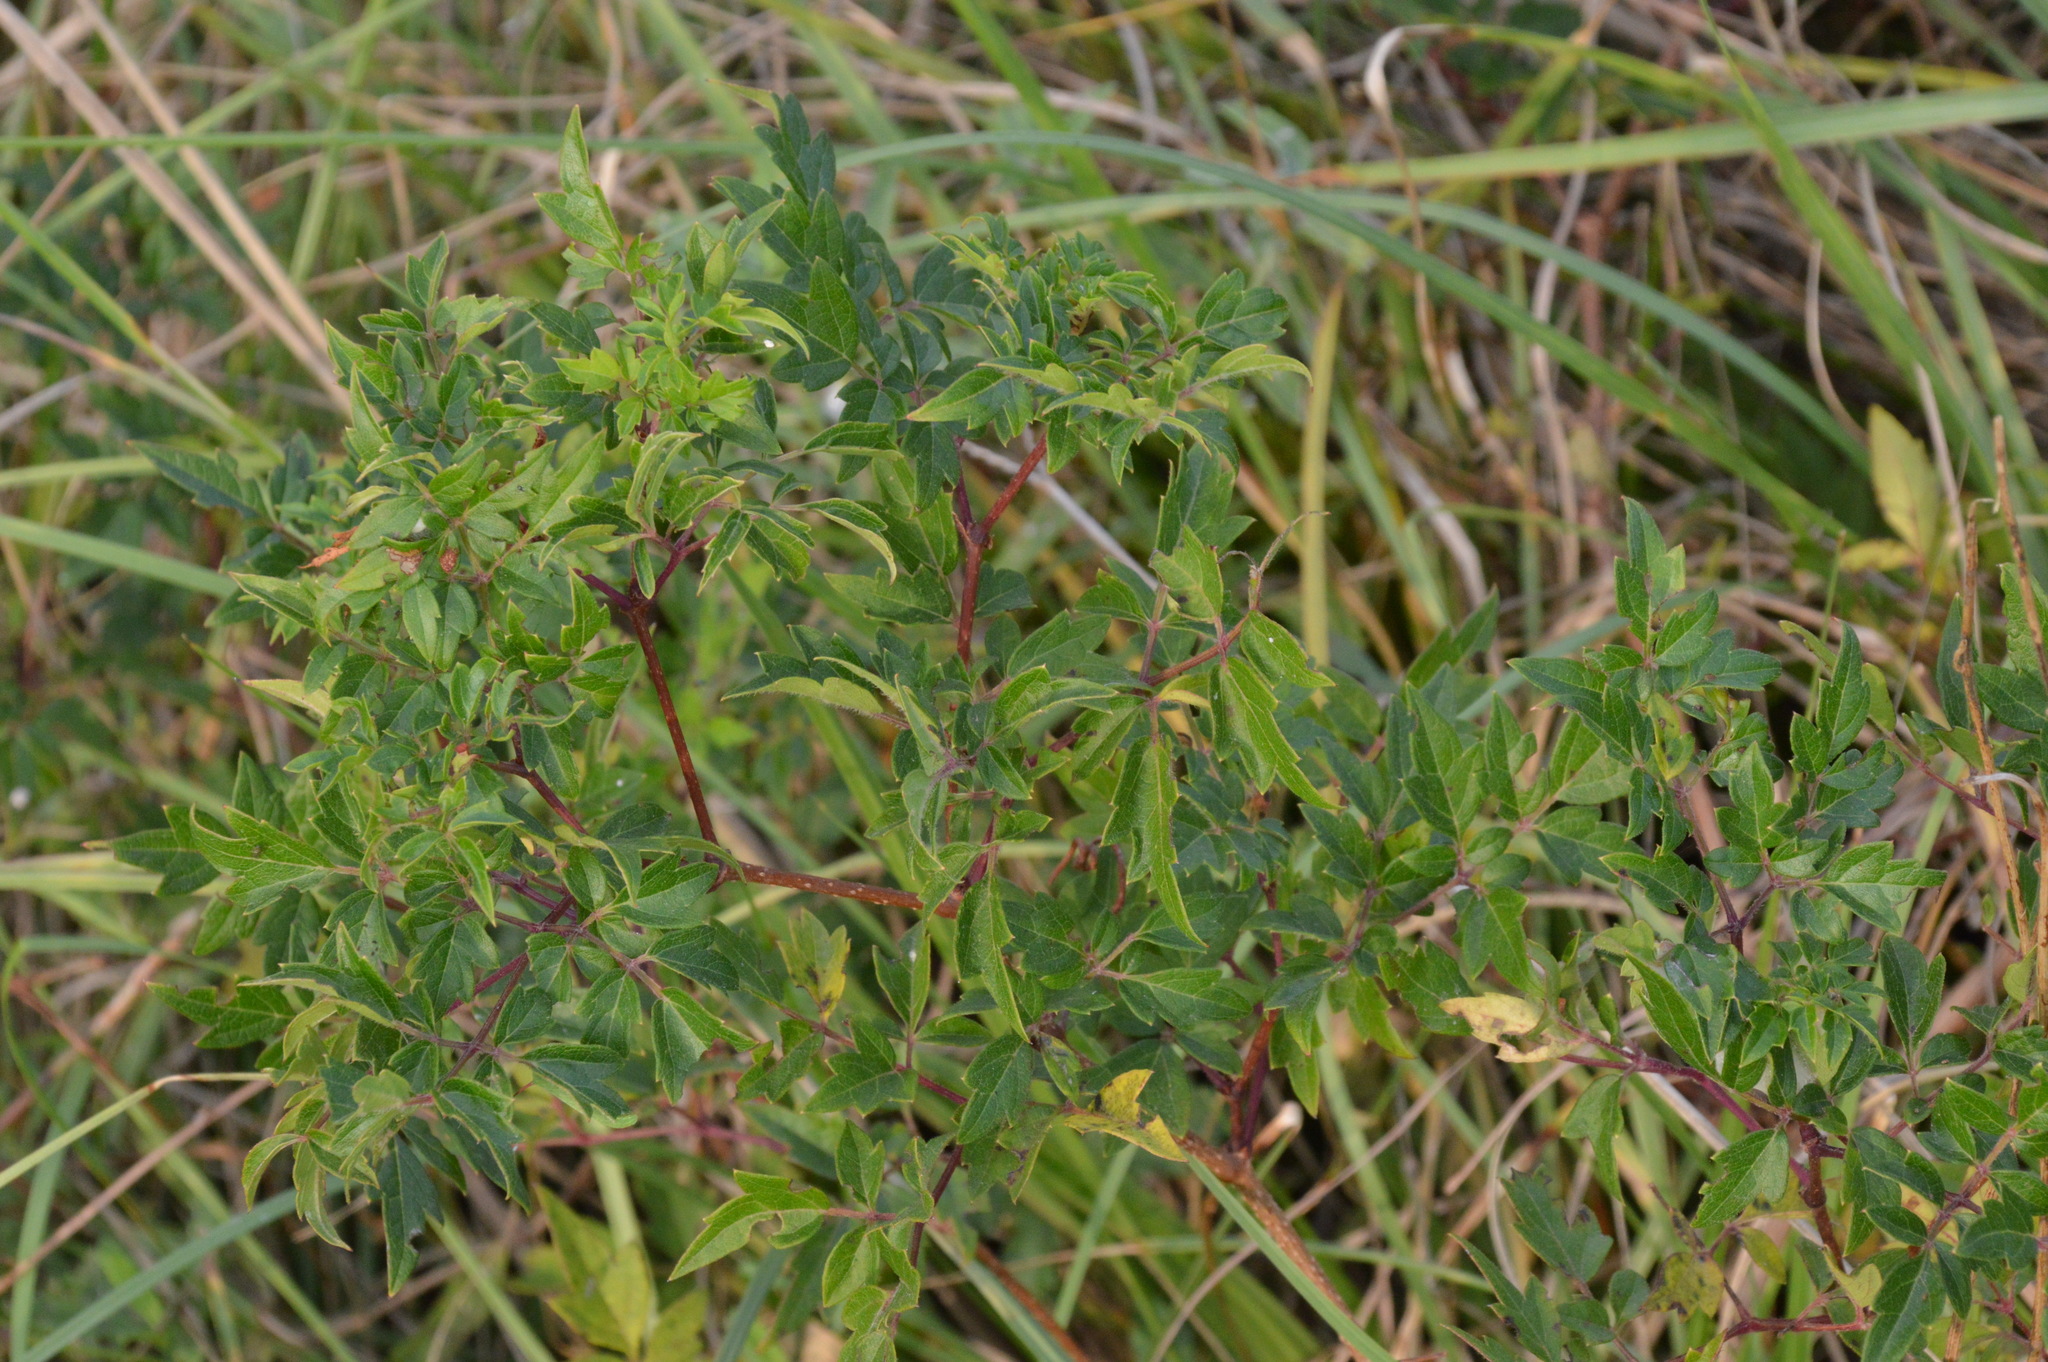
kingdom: Plantae
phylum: Tracheophyta
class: Magnoliopsida
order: Vitales
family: Vitaceae
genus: Nekemias
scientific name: Nekemias arborea
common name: Peppervine
